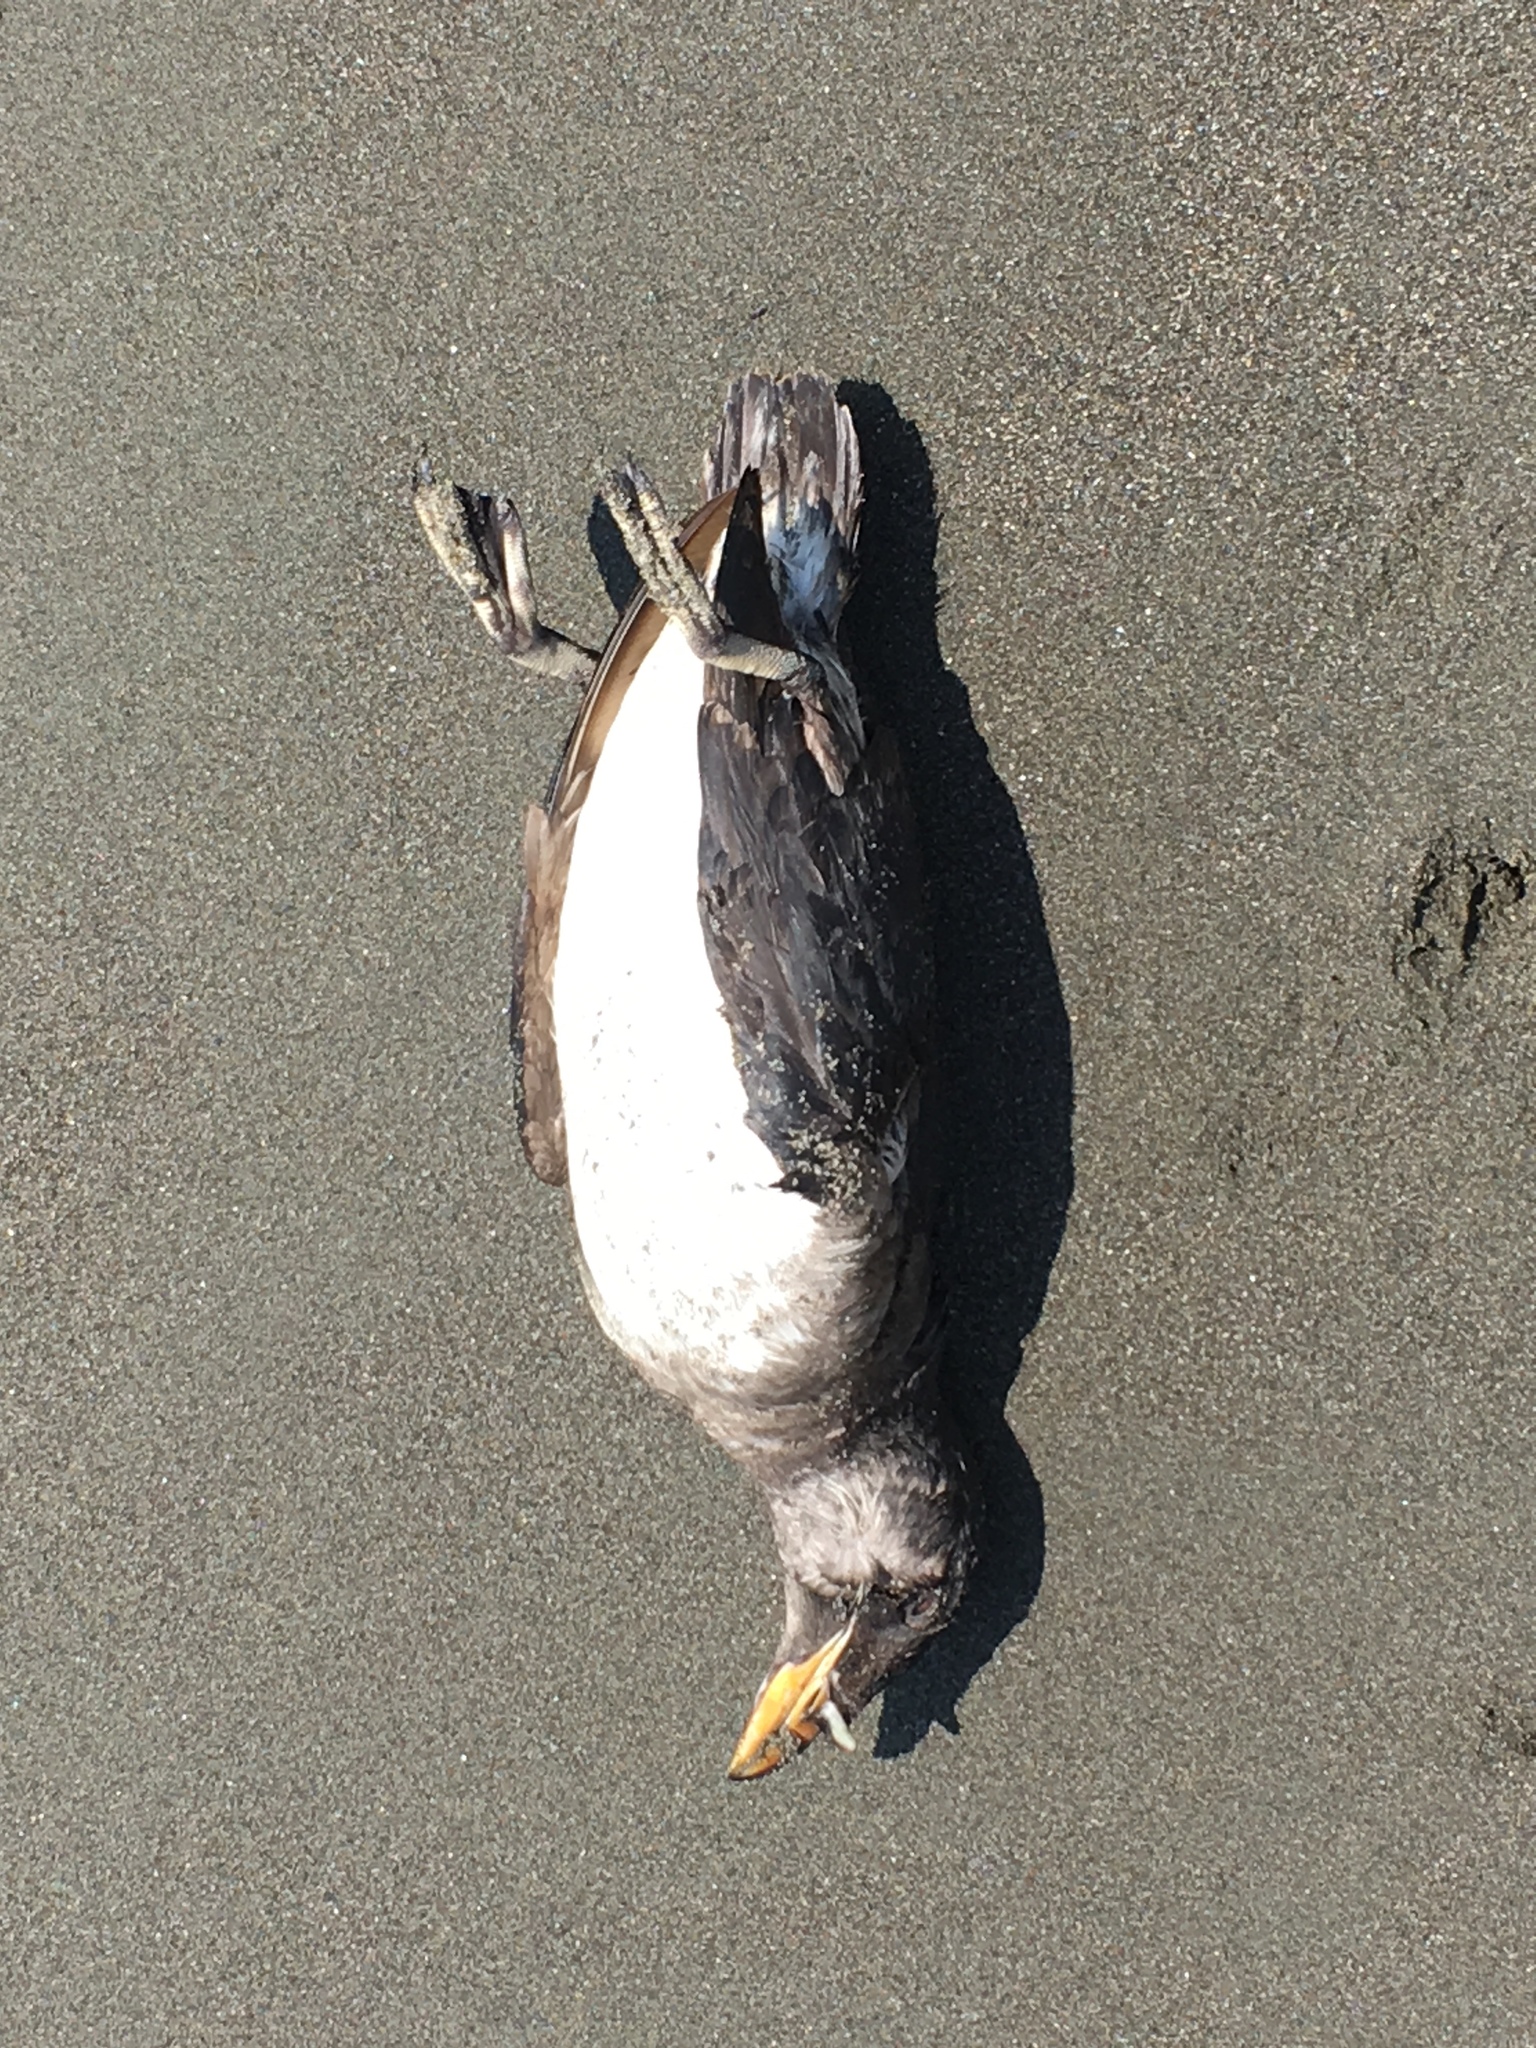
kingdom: Animalia
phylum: Chordata
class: Aves
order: Charadriiformes
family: Alcidae
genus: Cerorhinca
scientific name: Cerorhinca monocerata
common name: Rhinoceros auklet
